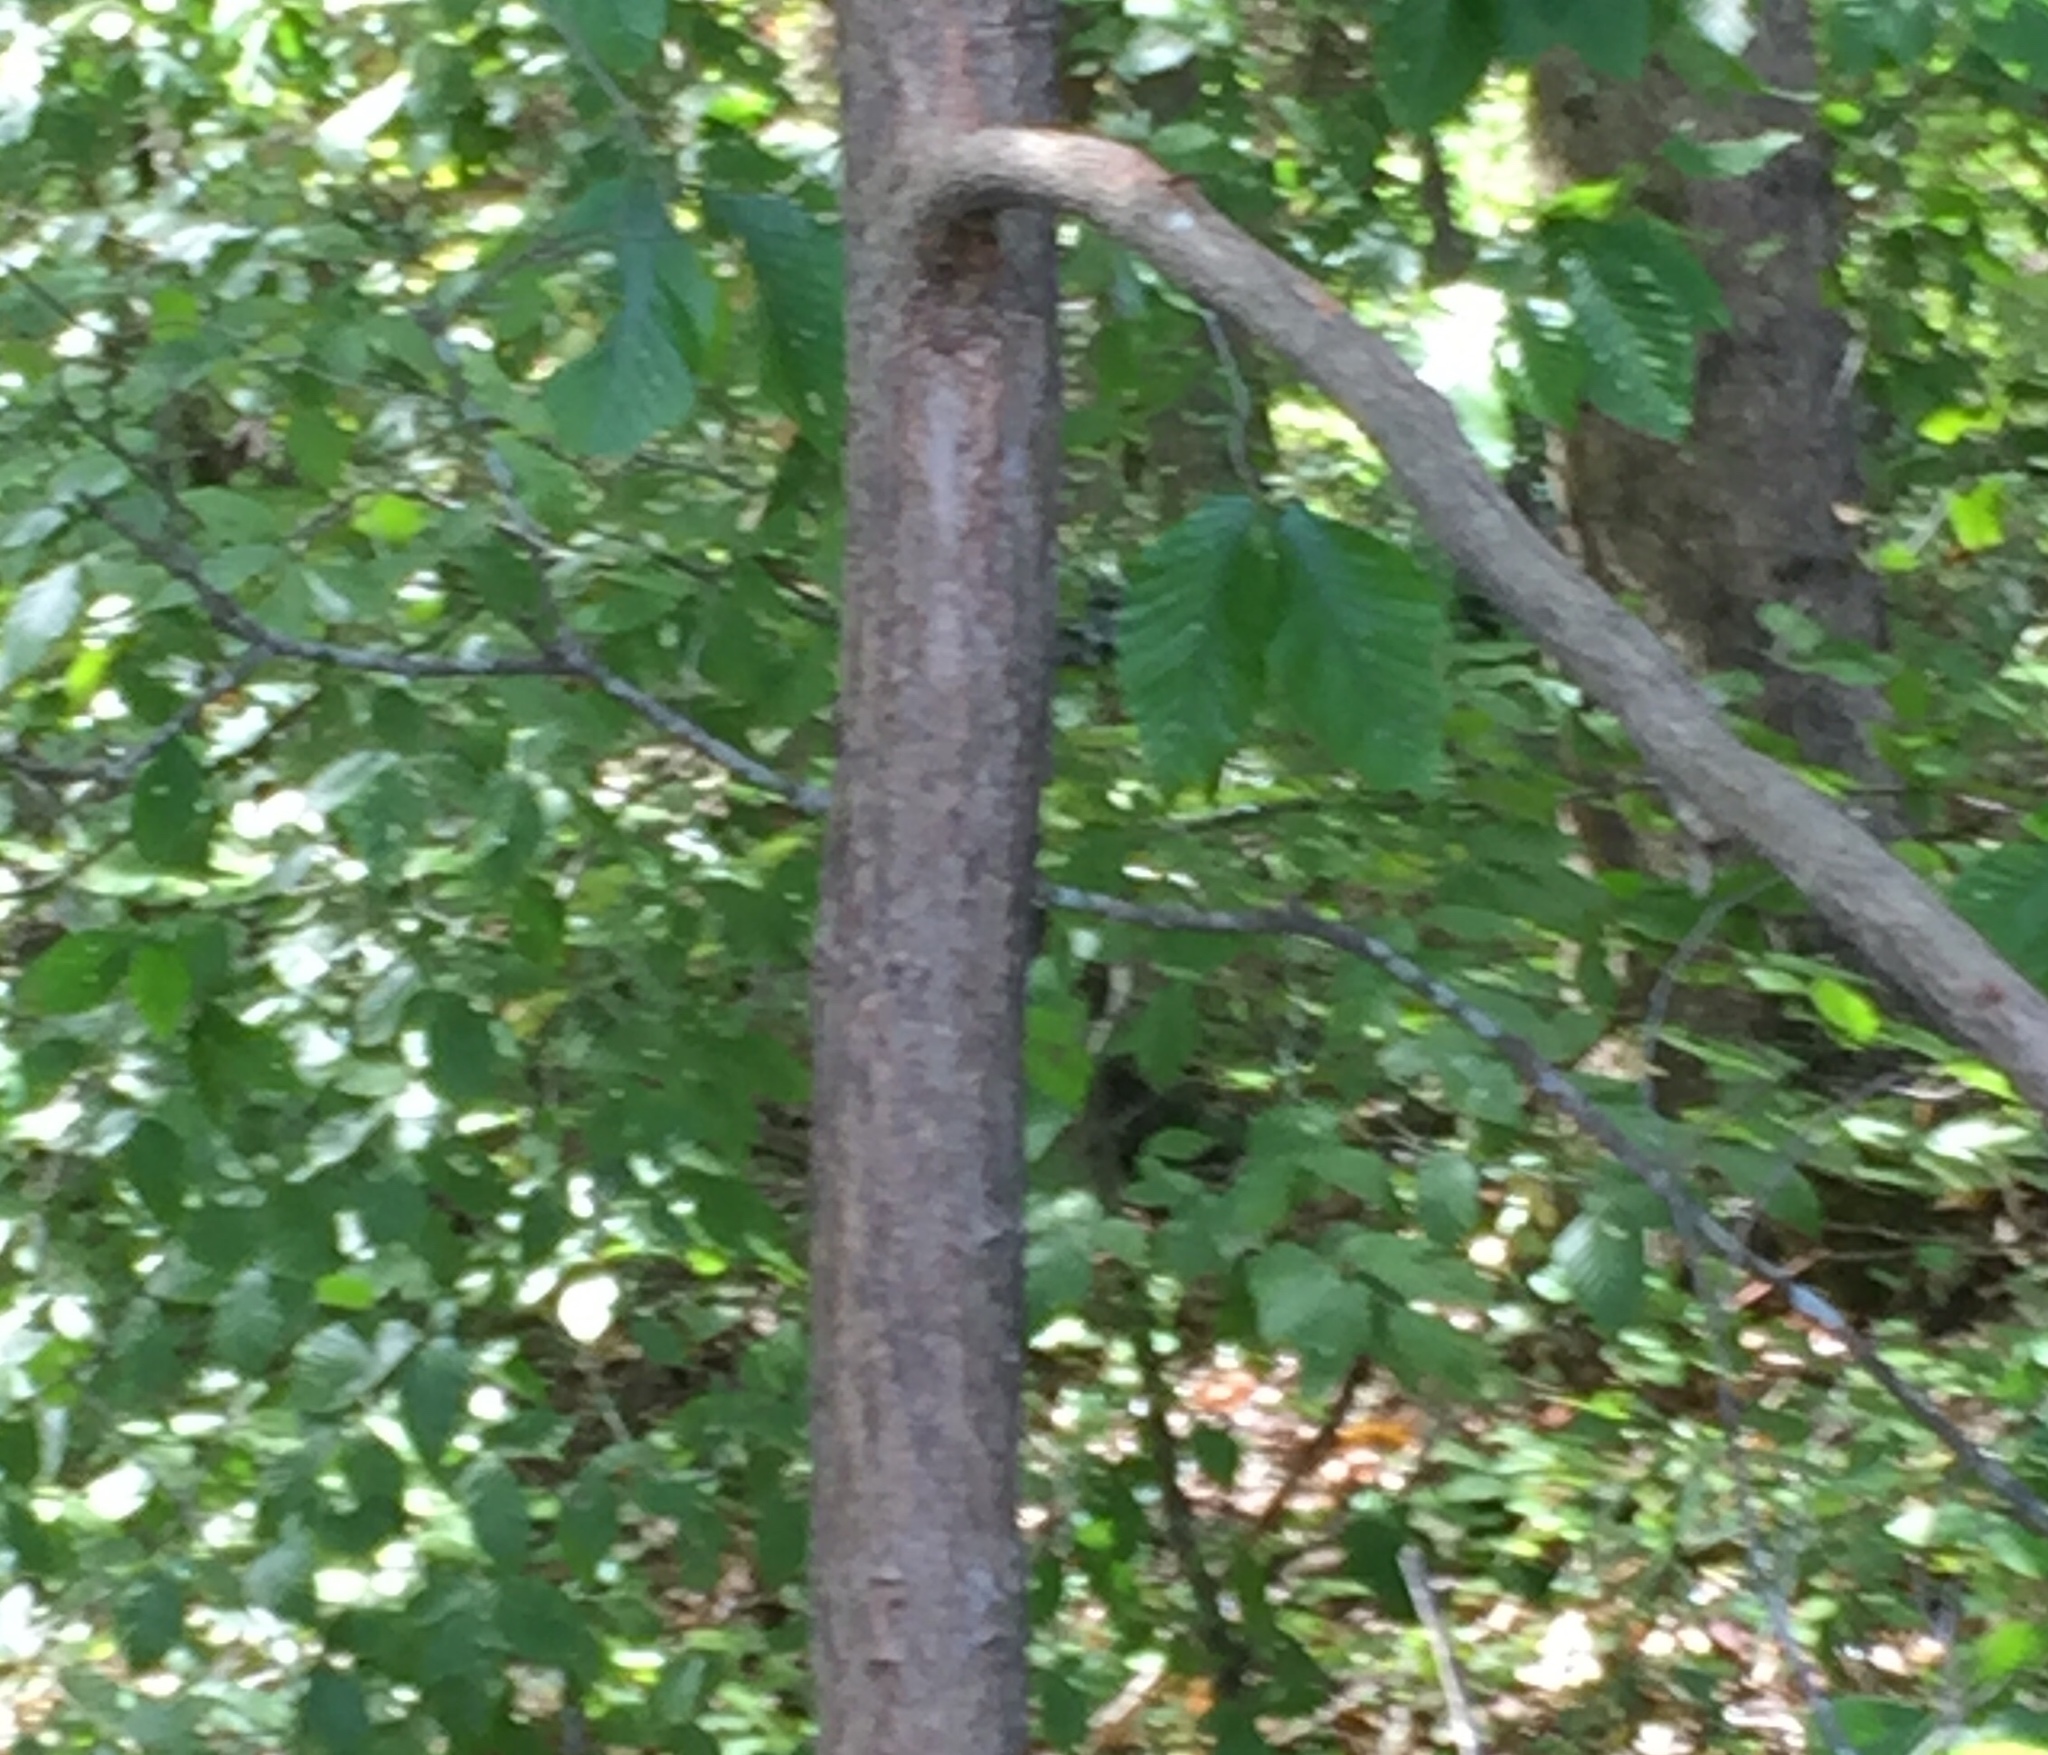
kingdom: Plantae
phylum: Tracheophyta
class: Magnoliopsida
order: Laurales
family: Lauraceae
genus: Sassafras
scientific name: Sassafras albidum
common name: Sassafras
